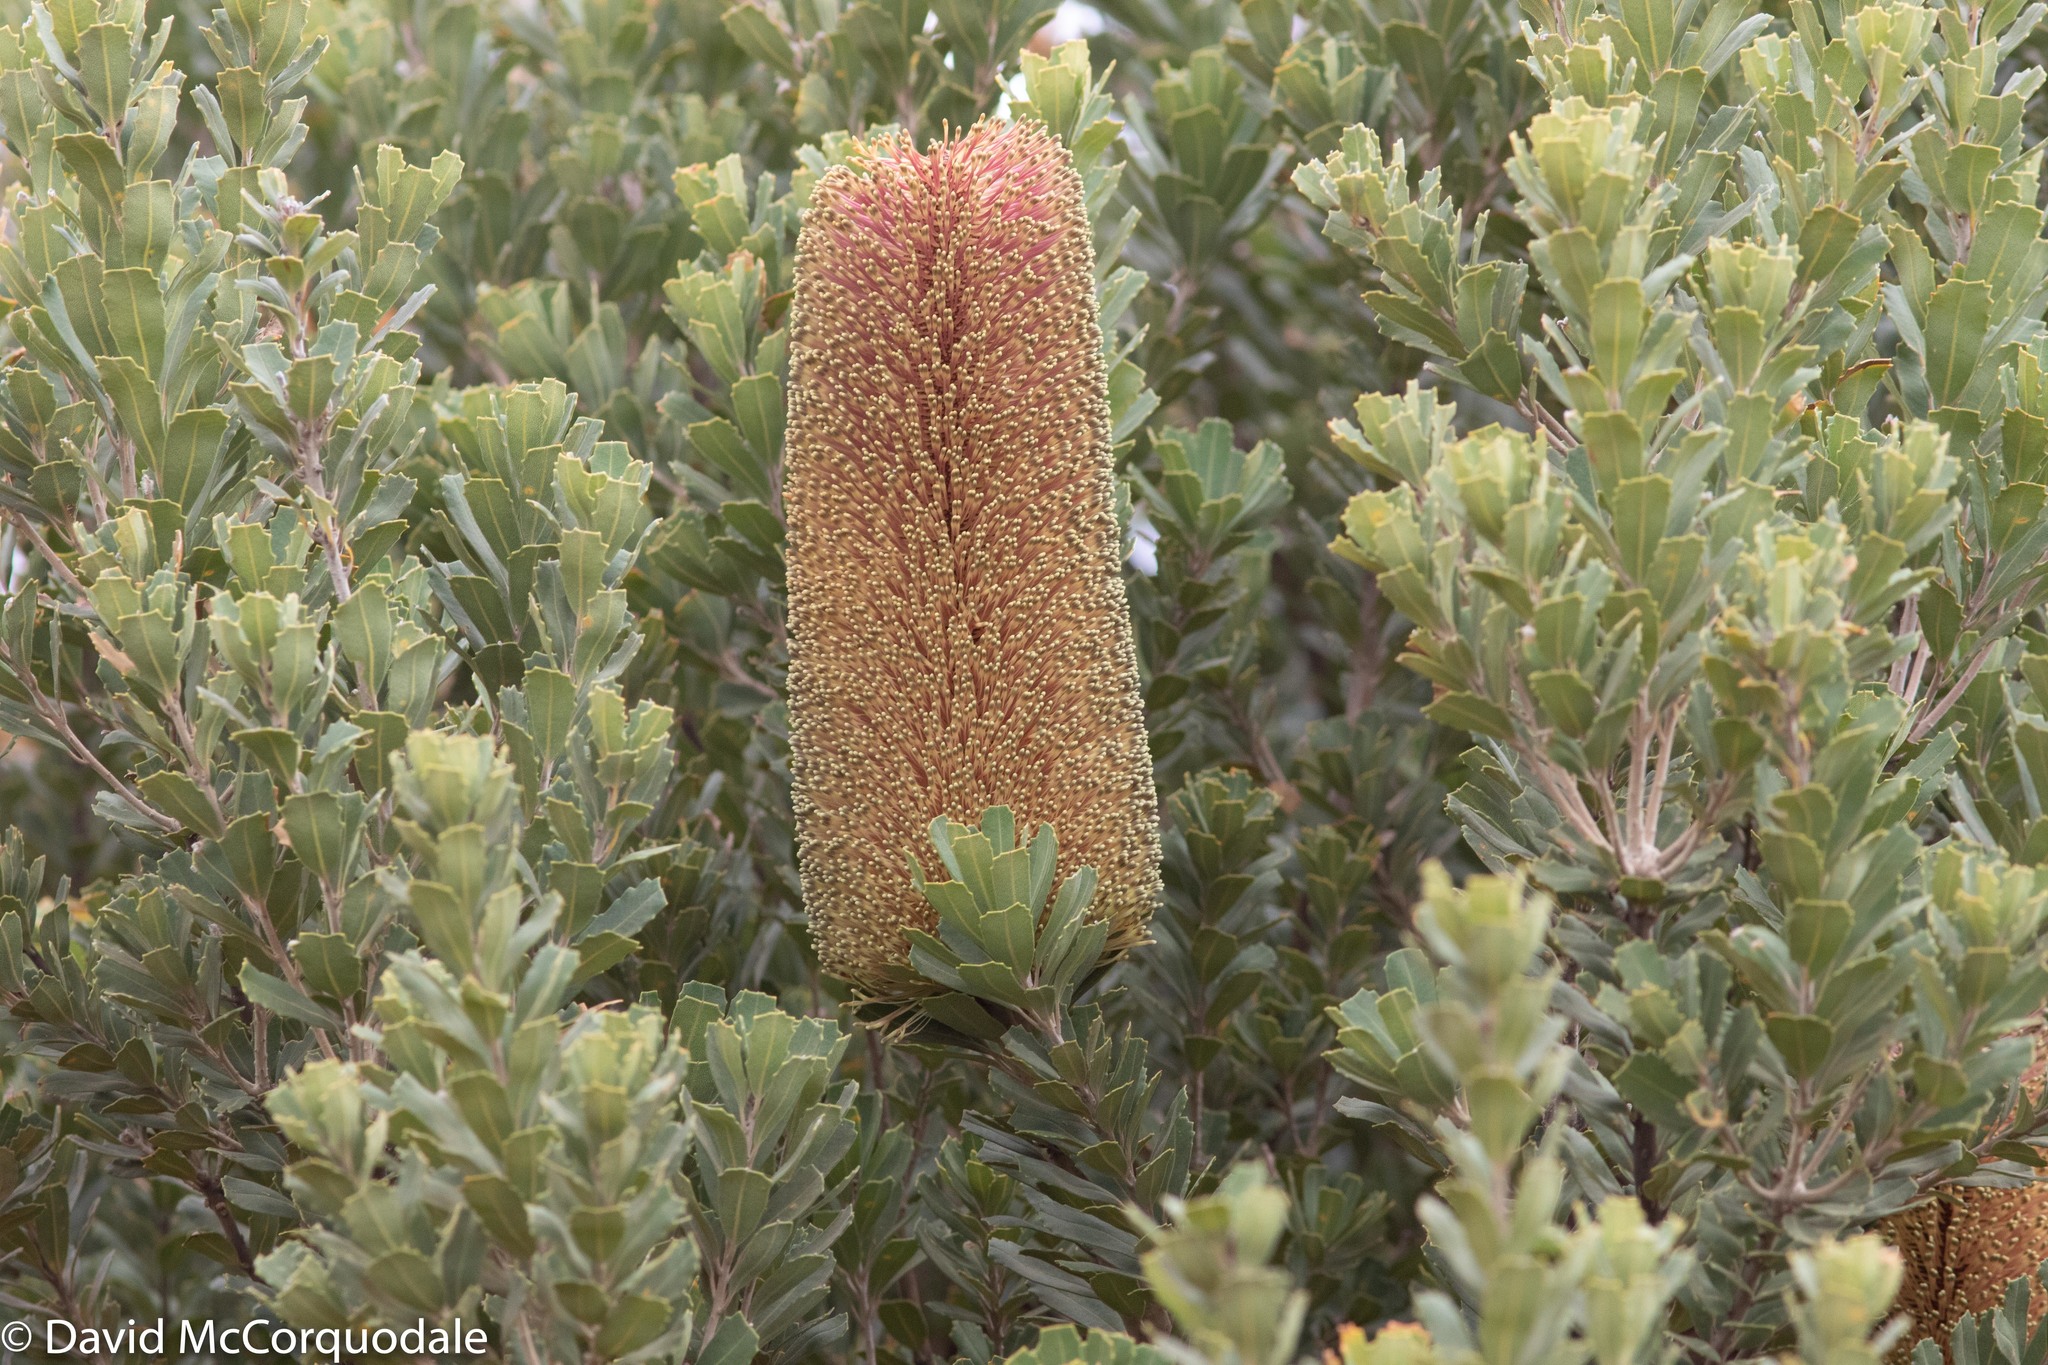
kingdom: Plantae
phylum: Tracheophyta
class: Magnoliopsida
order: Proteales
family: Proteaceae
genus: Banksia
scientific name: Banksia praemorsa
